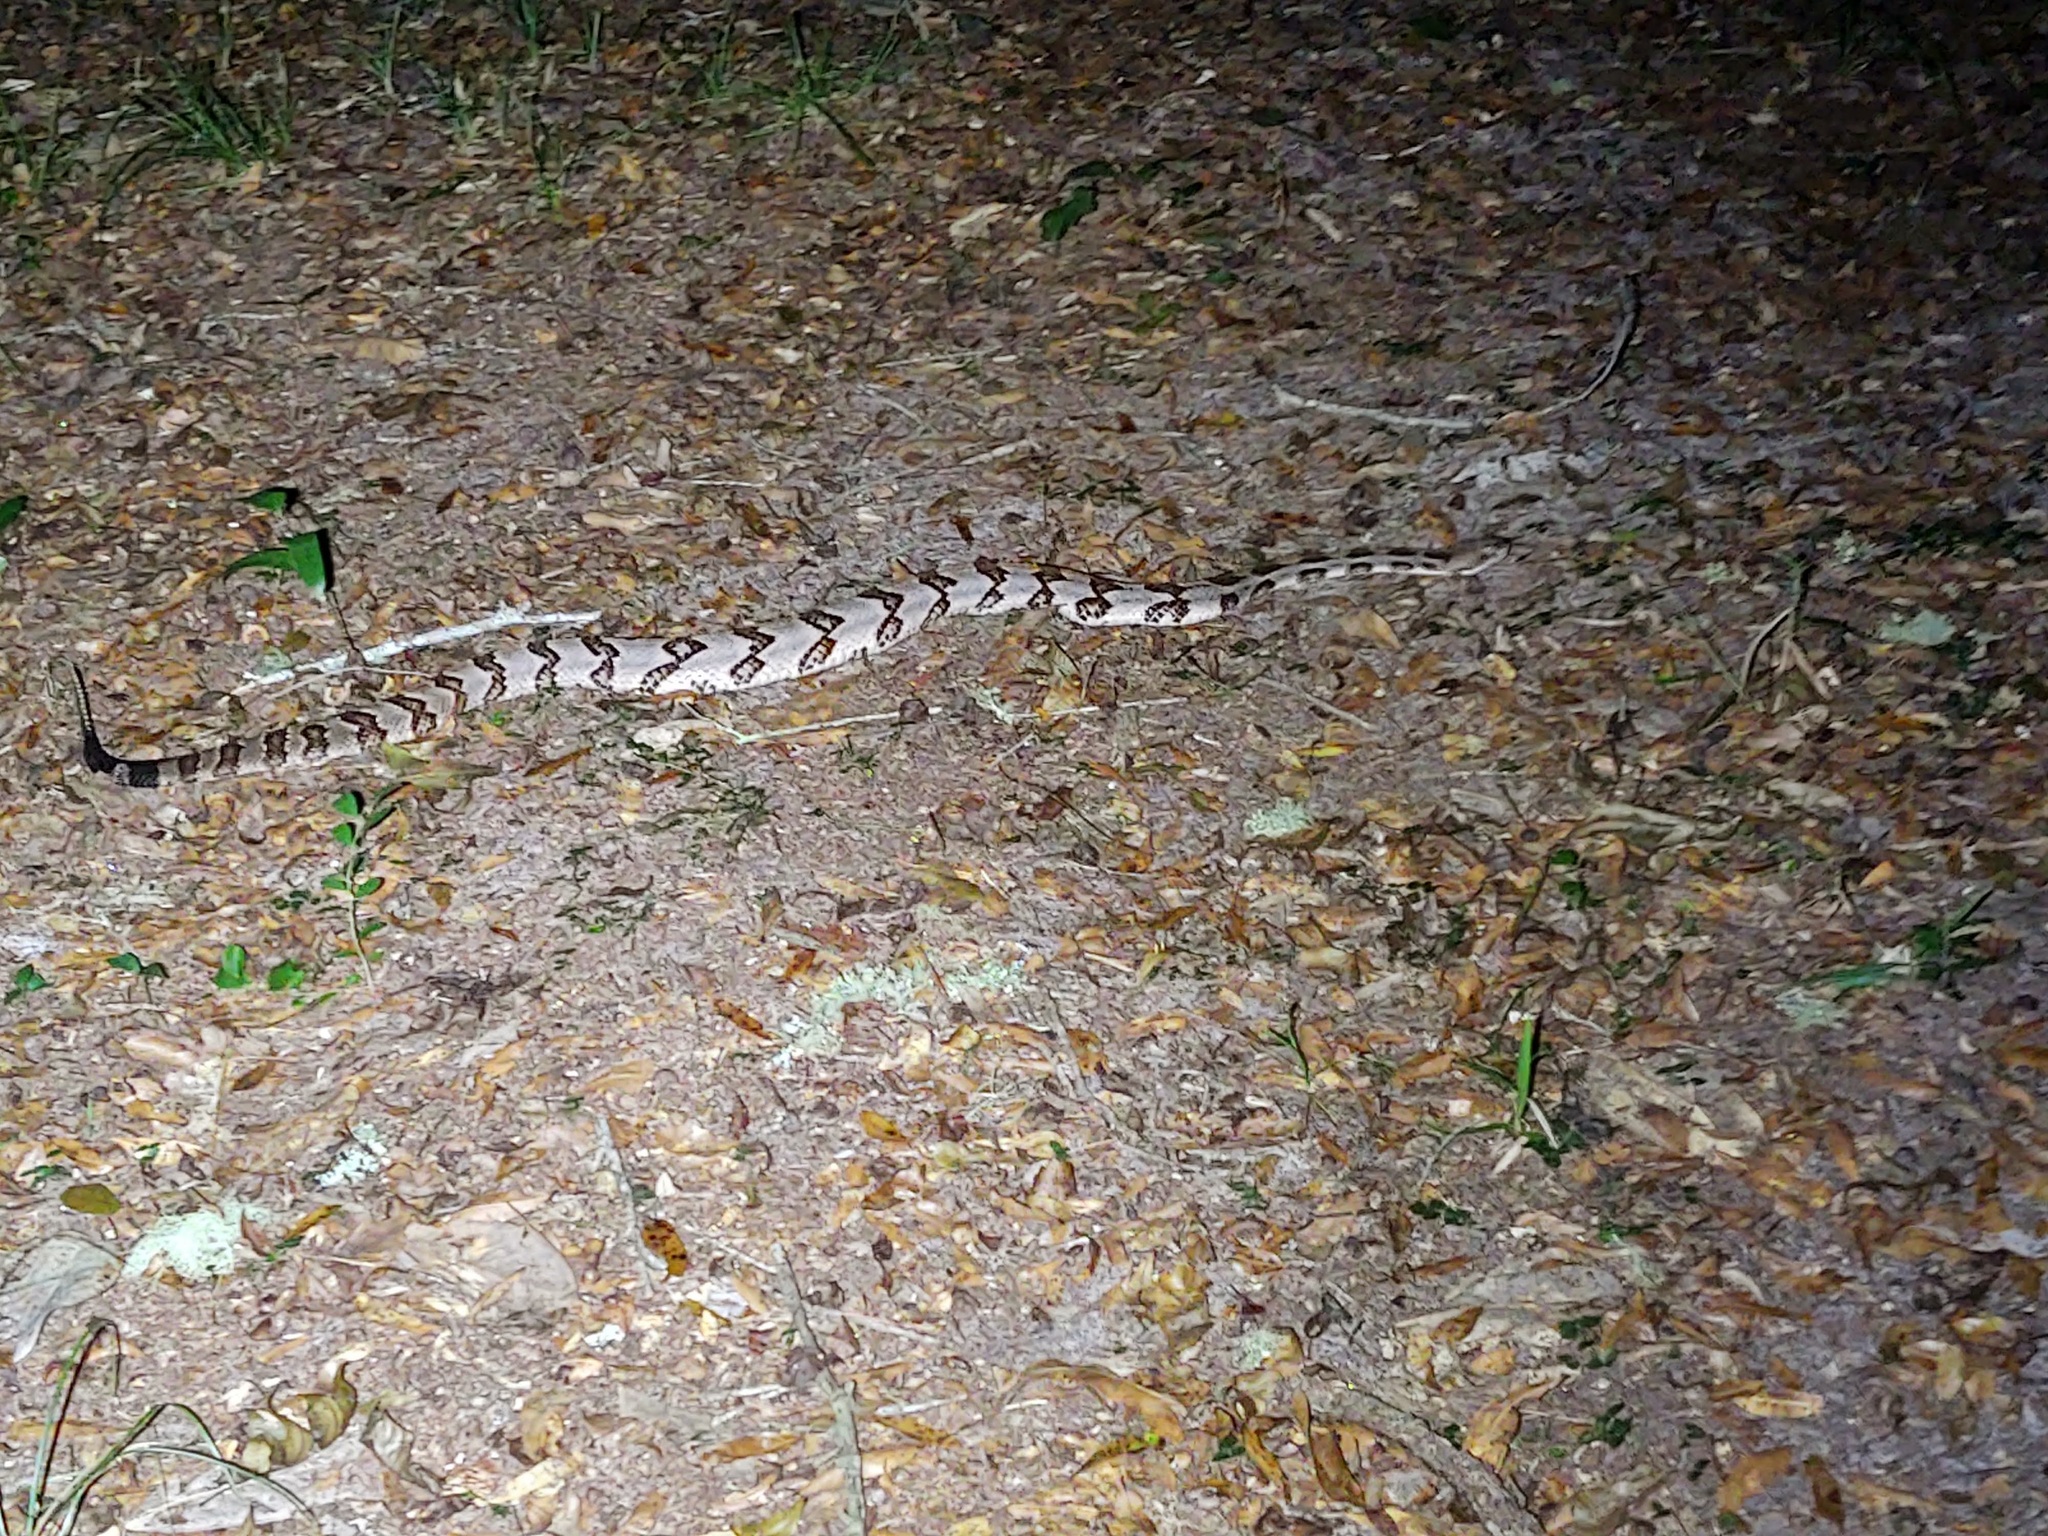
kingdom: Animalia
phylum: Chordata
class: Squamata
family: Viperidae
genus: Crotalus
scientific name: Crotalus horridus
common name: Timber rattlesnake
